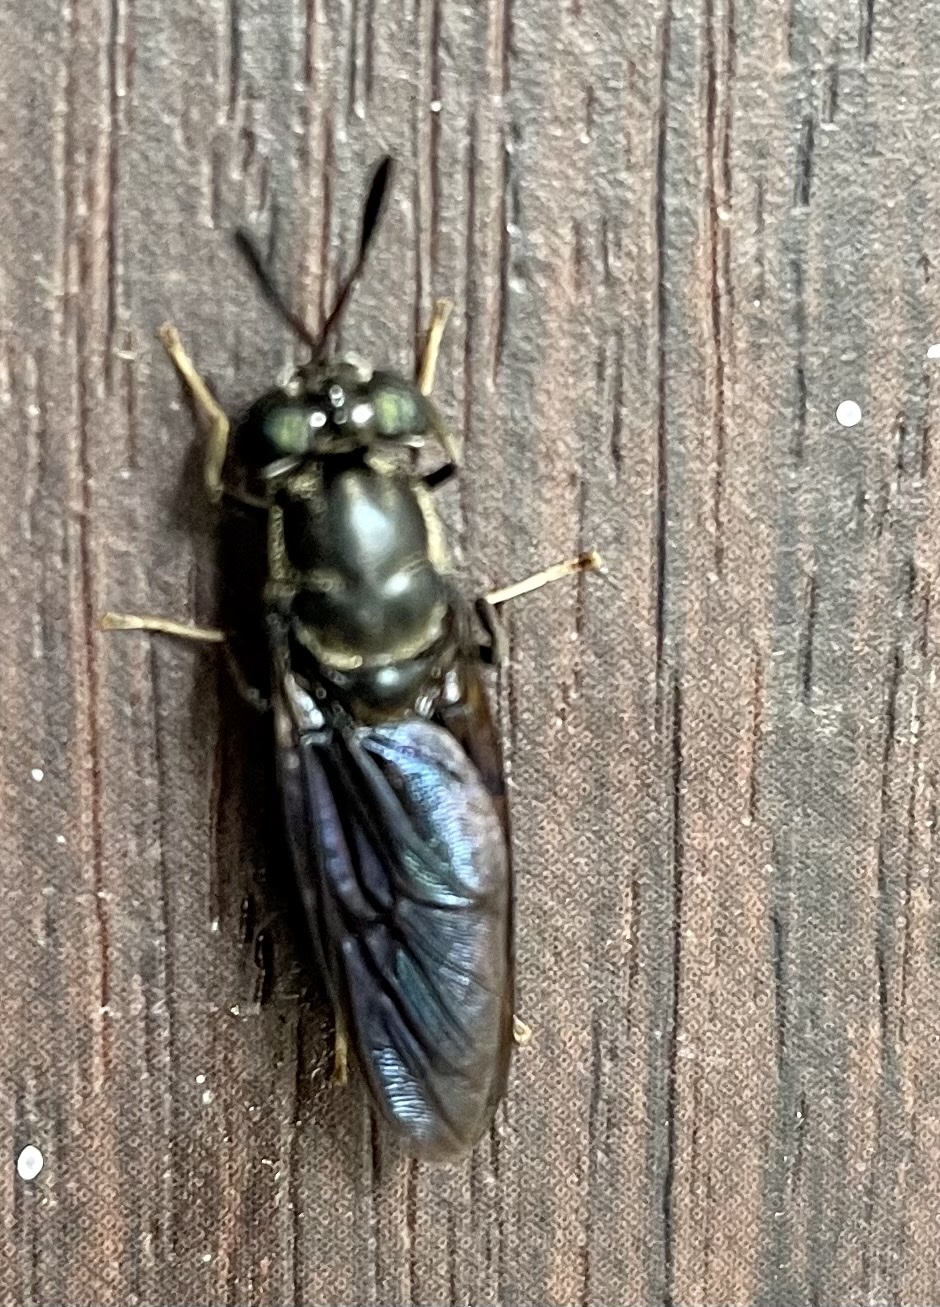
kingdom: Animalia
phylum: Arthropoda
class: Insecta
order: Diptera
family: Stratiomyidae
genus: Hermetia
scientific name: Hermetia illucens
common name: Black soldier fly
